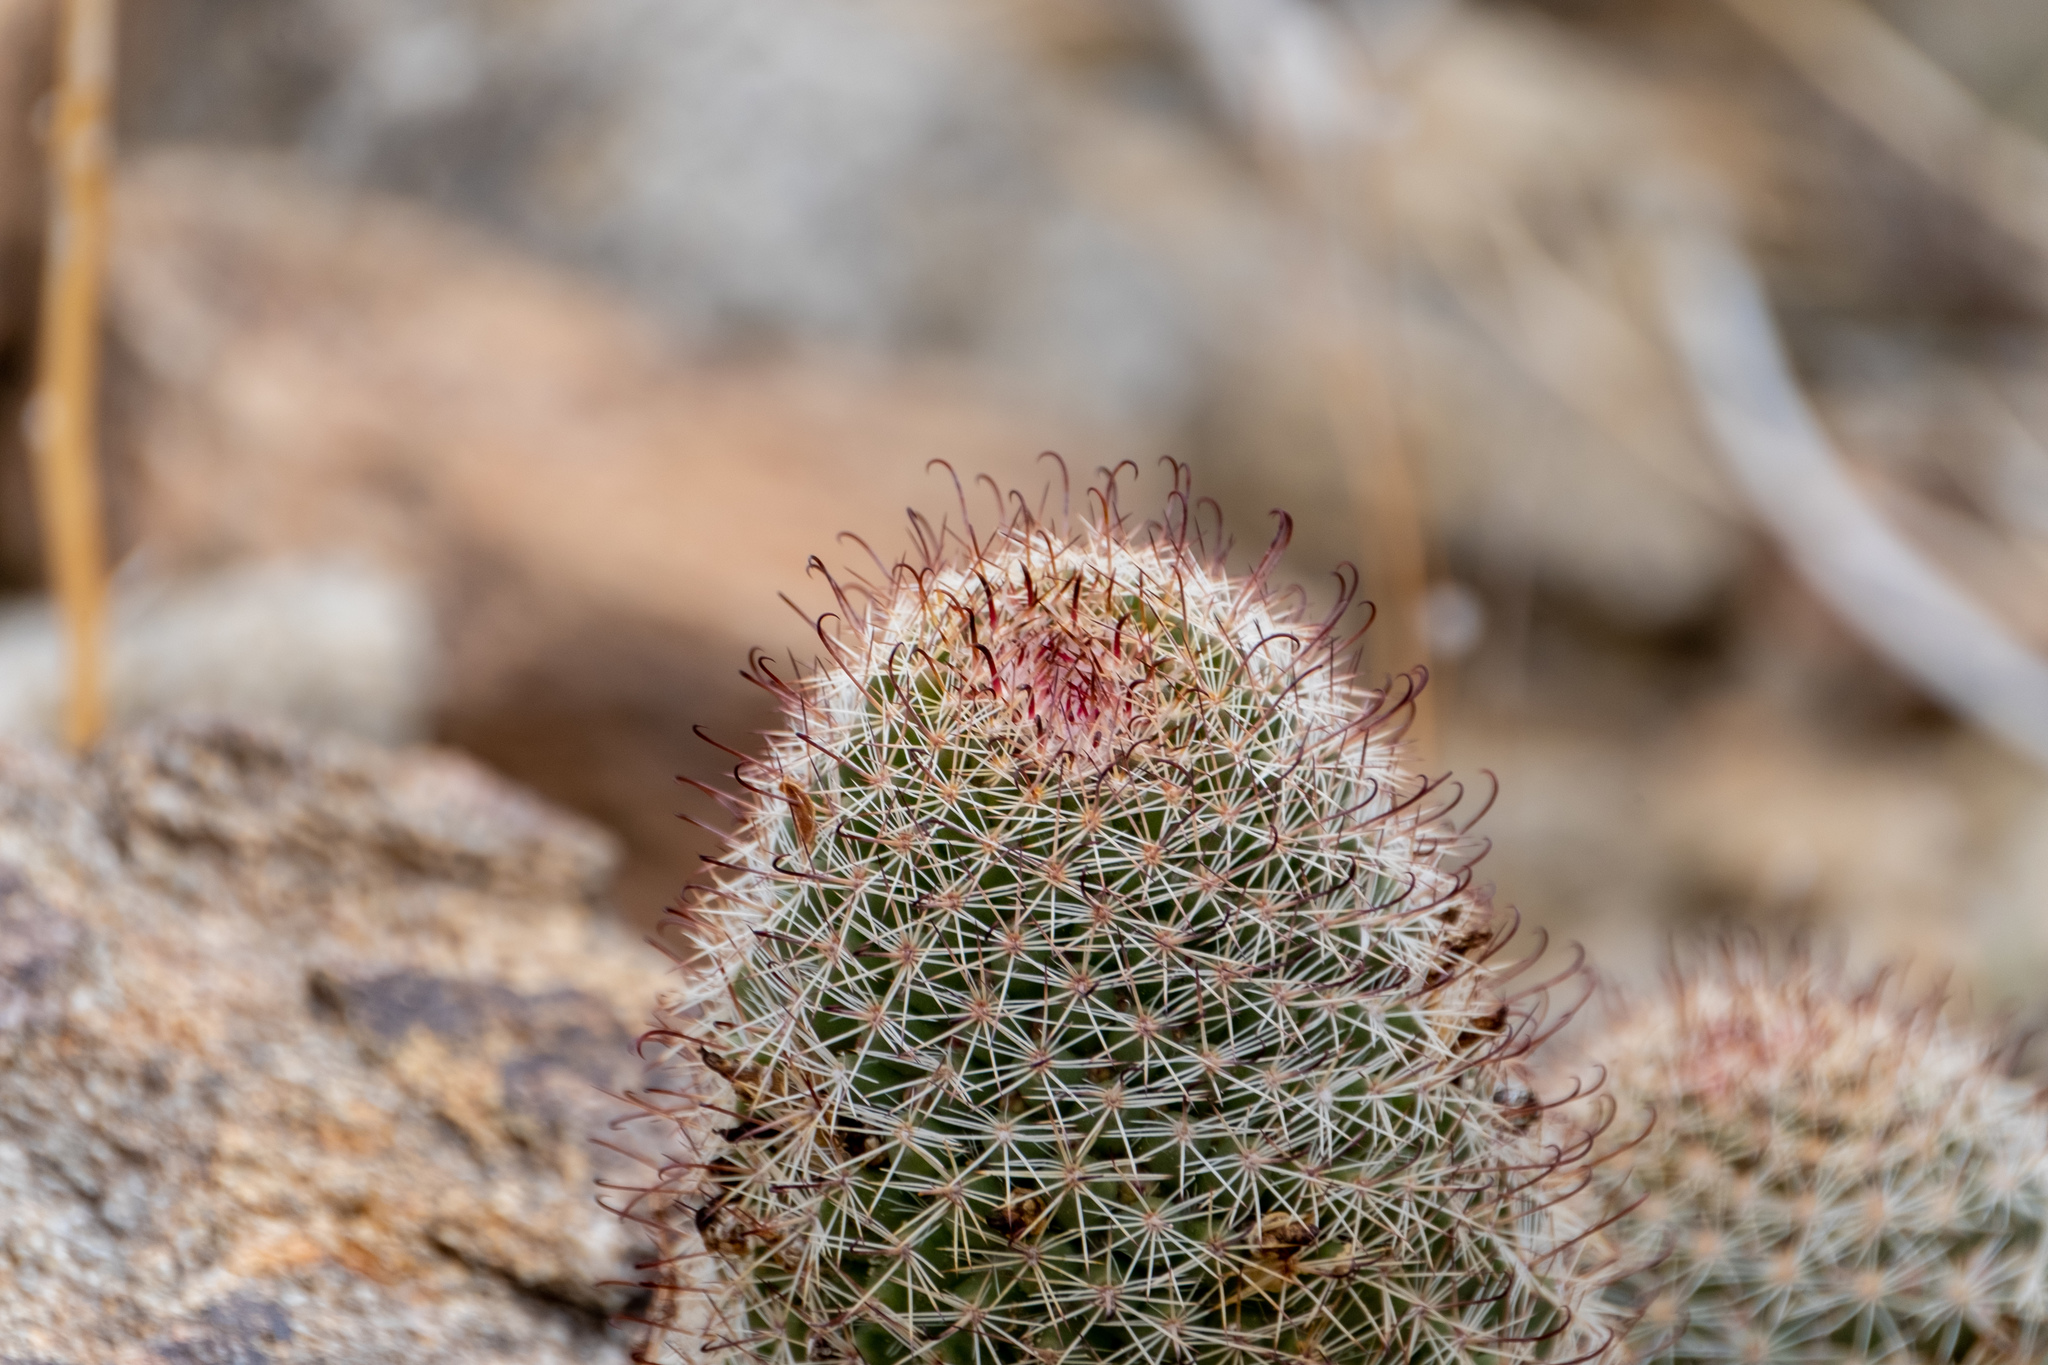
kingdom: Plantae
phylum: Tracheophyta
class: Magnoliopsida
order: Caryophyllales
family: Cactaceae
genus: Cochemiea
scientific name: Cochemiea dioica
